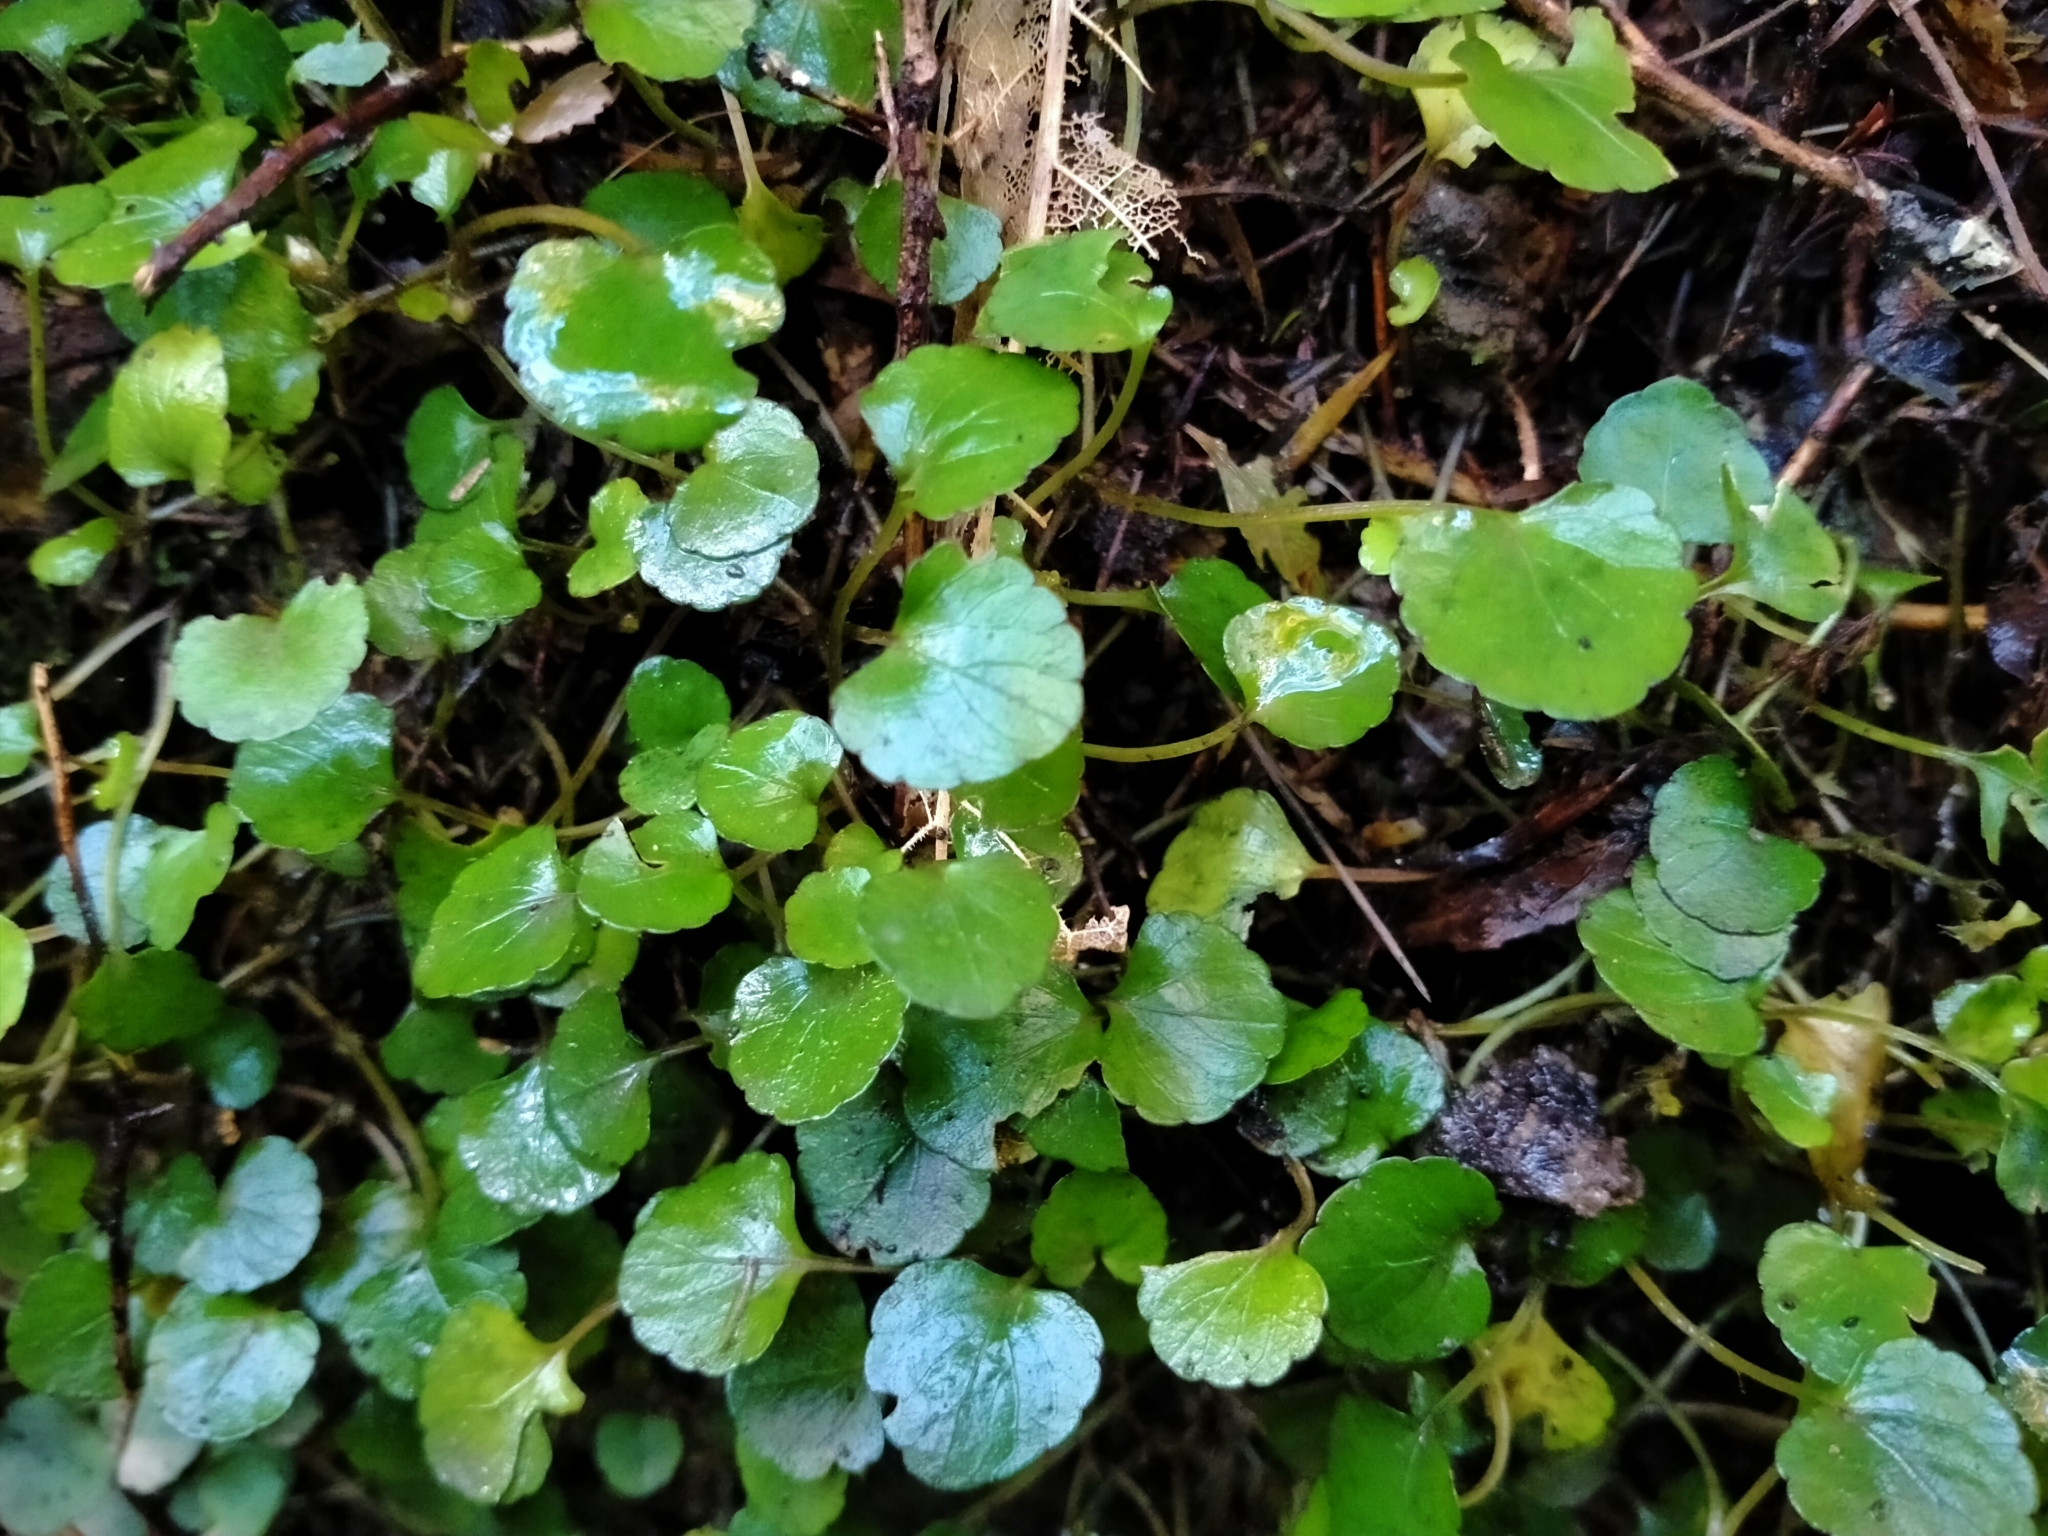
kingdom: Plantae
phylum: Tracheophyta
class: Magnoliopsida
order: Malpighiales
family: Violaceae
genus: Viola
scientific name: Viola filicaulis
